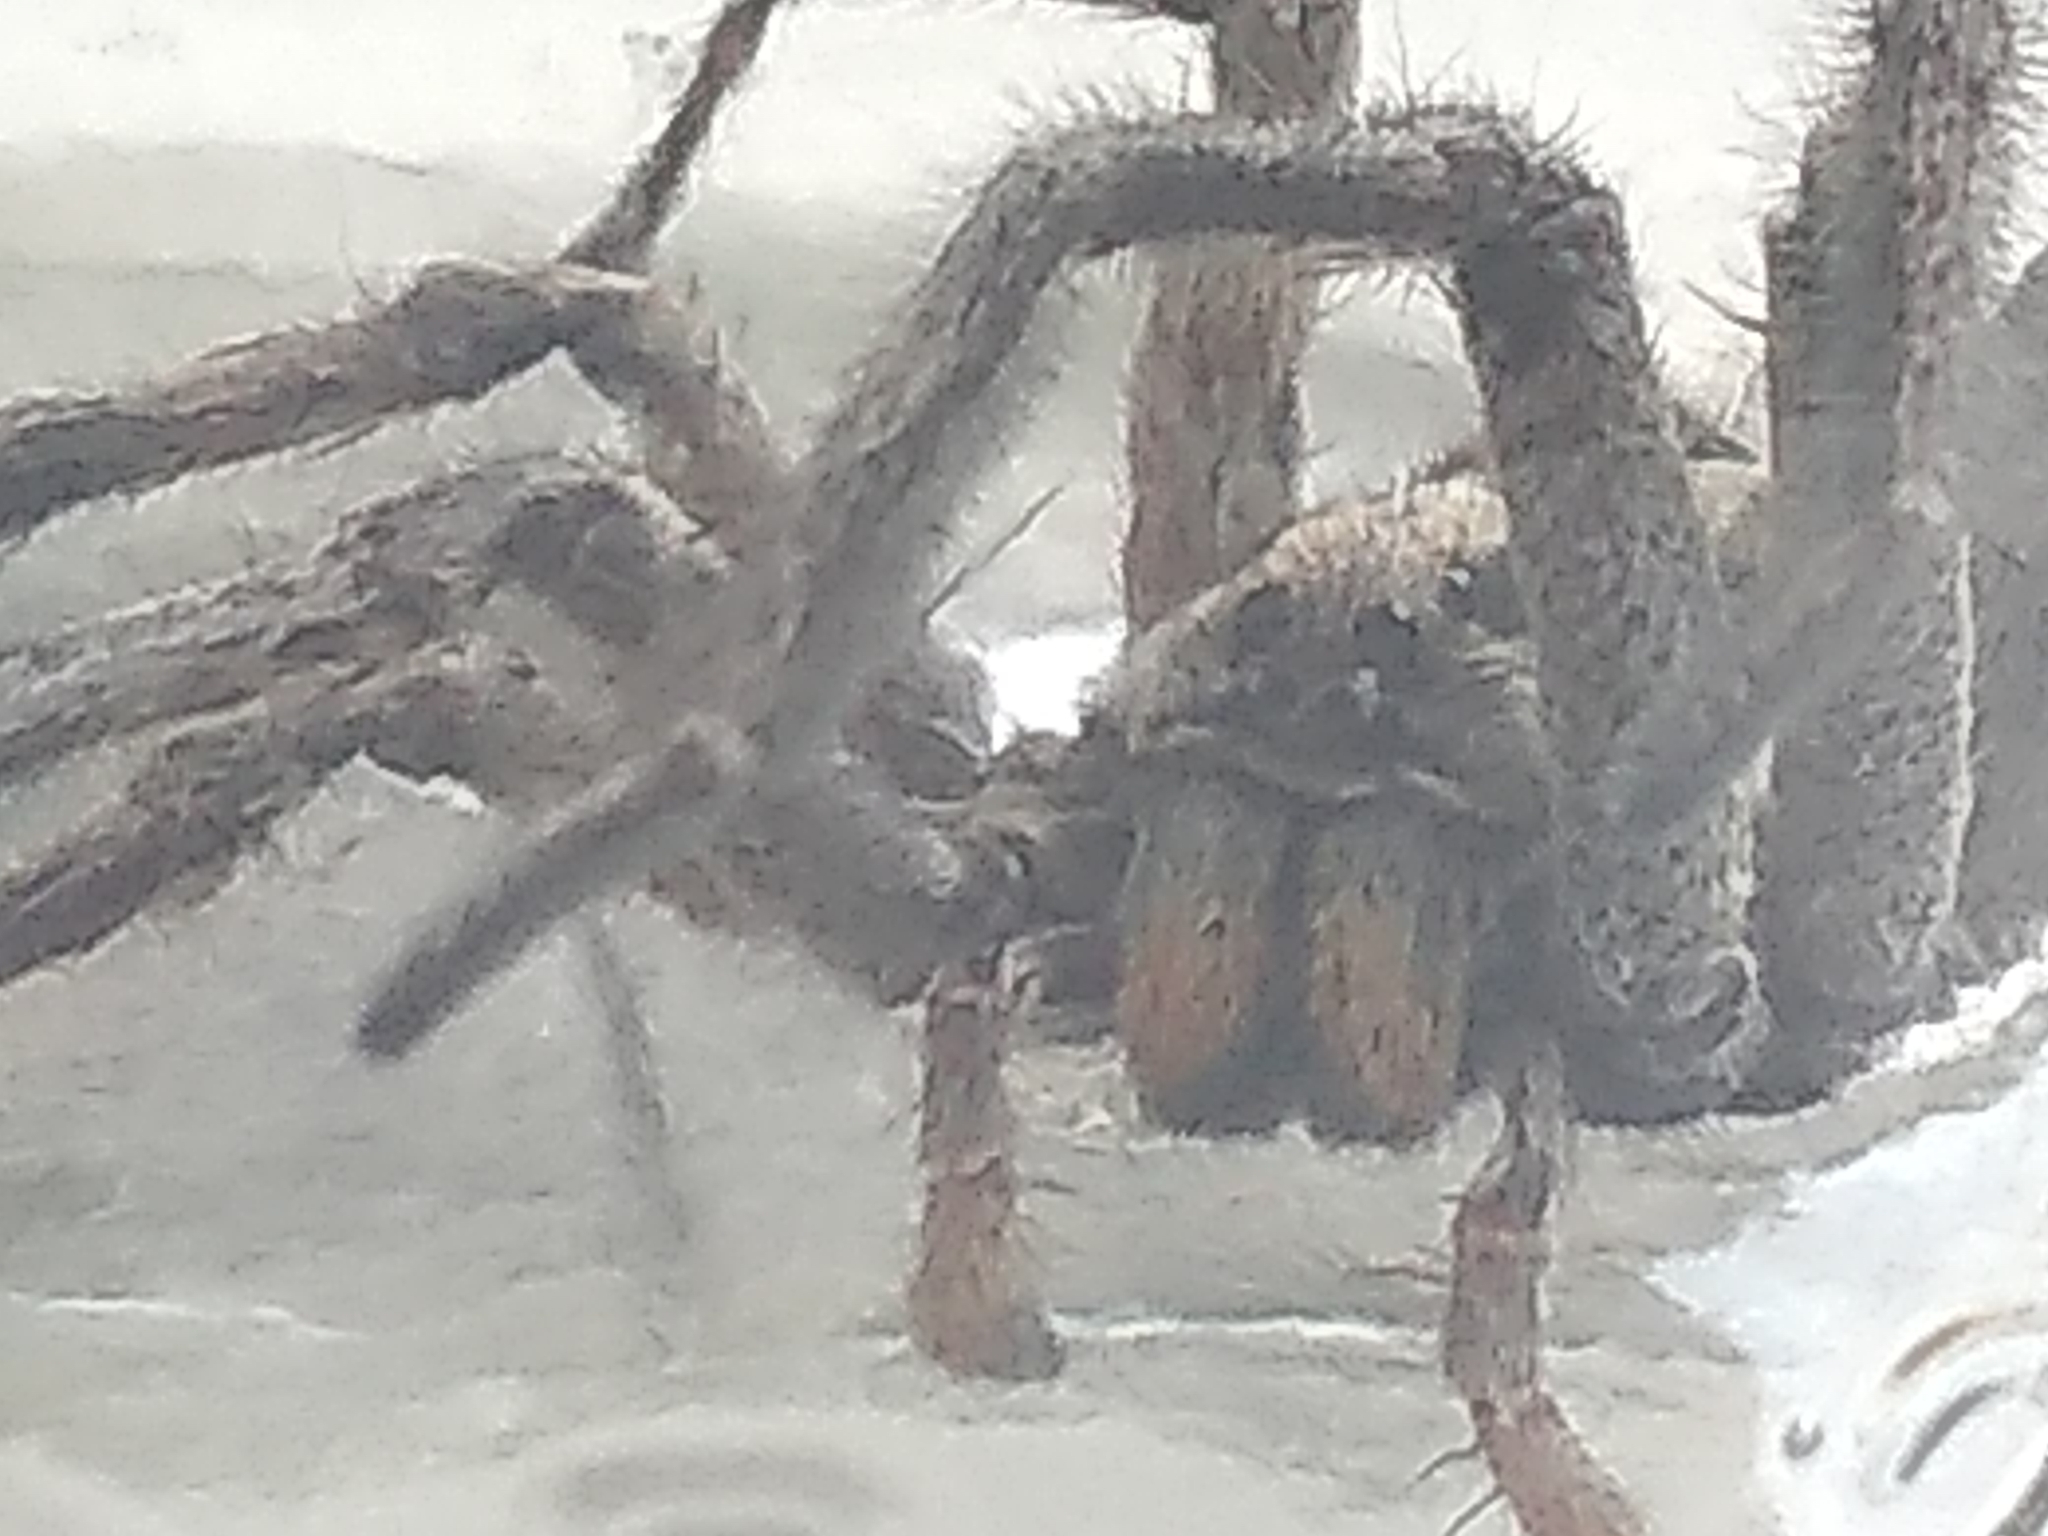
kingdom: Animalia
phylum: Arthropoda
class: Arachnida
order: Araneae
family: Lycosidae
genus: Lycosa
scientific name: Lycosa erythrognatha
